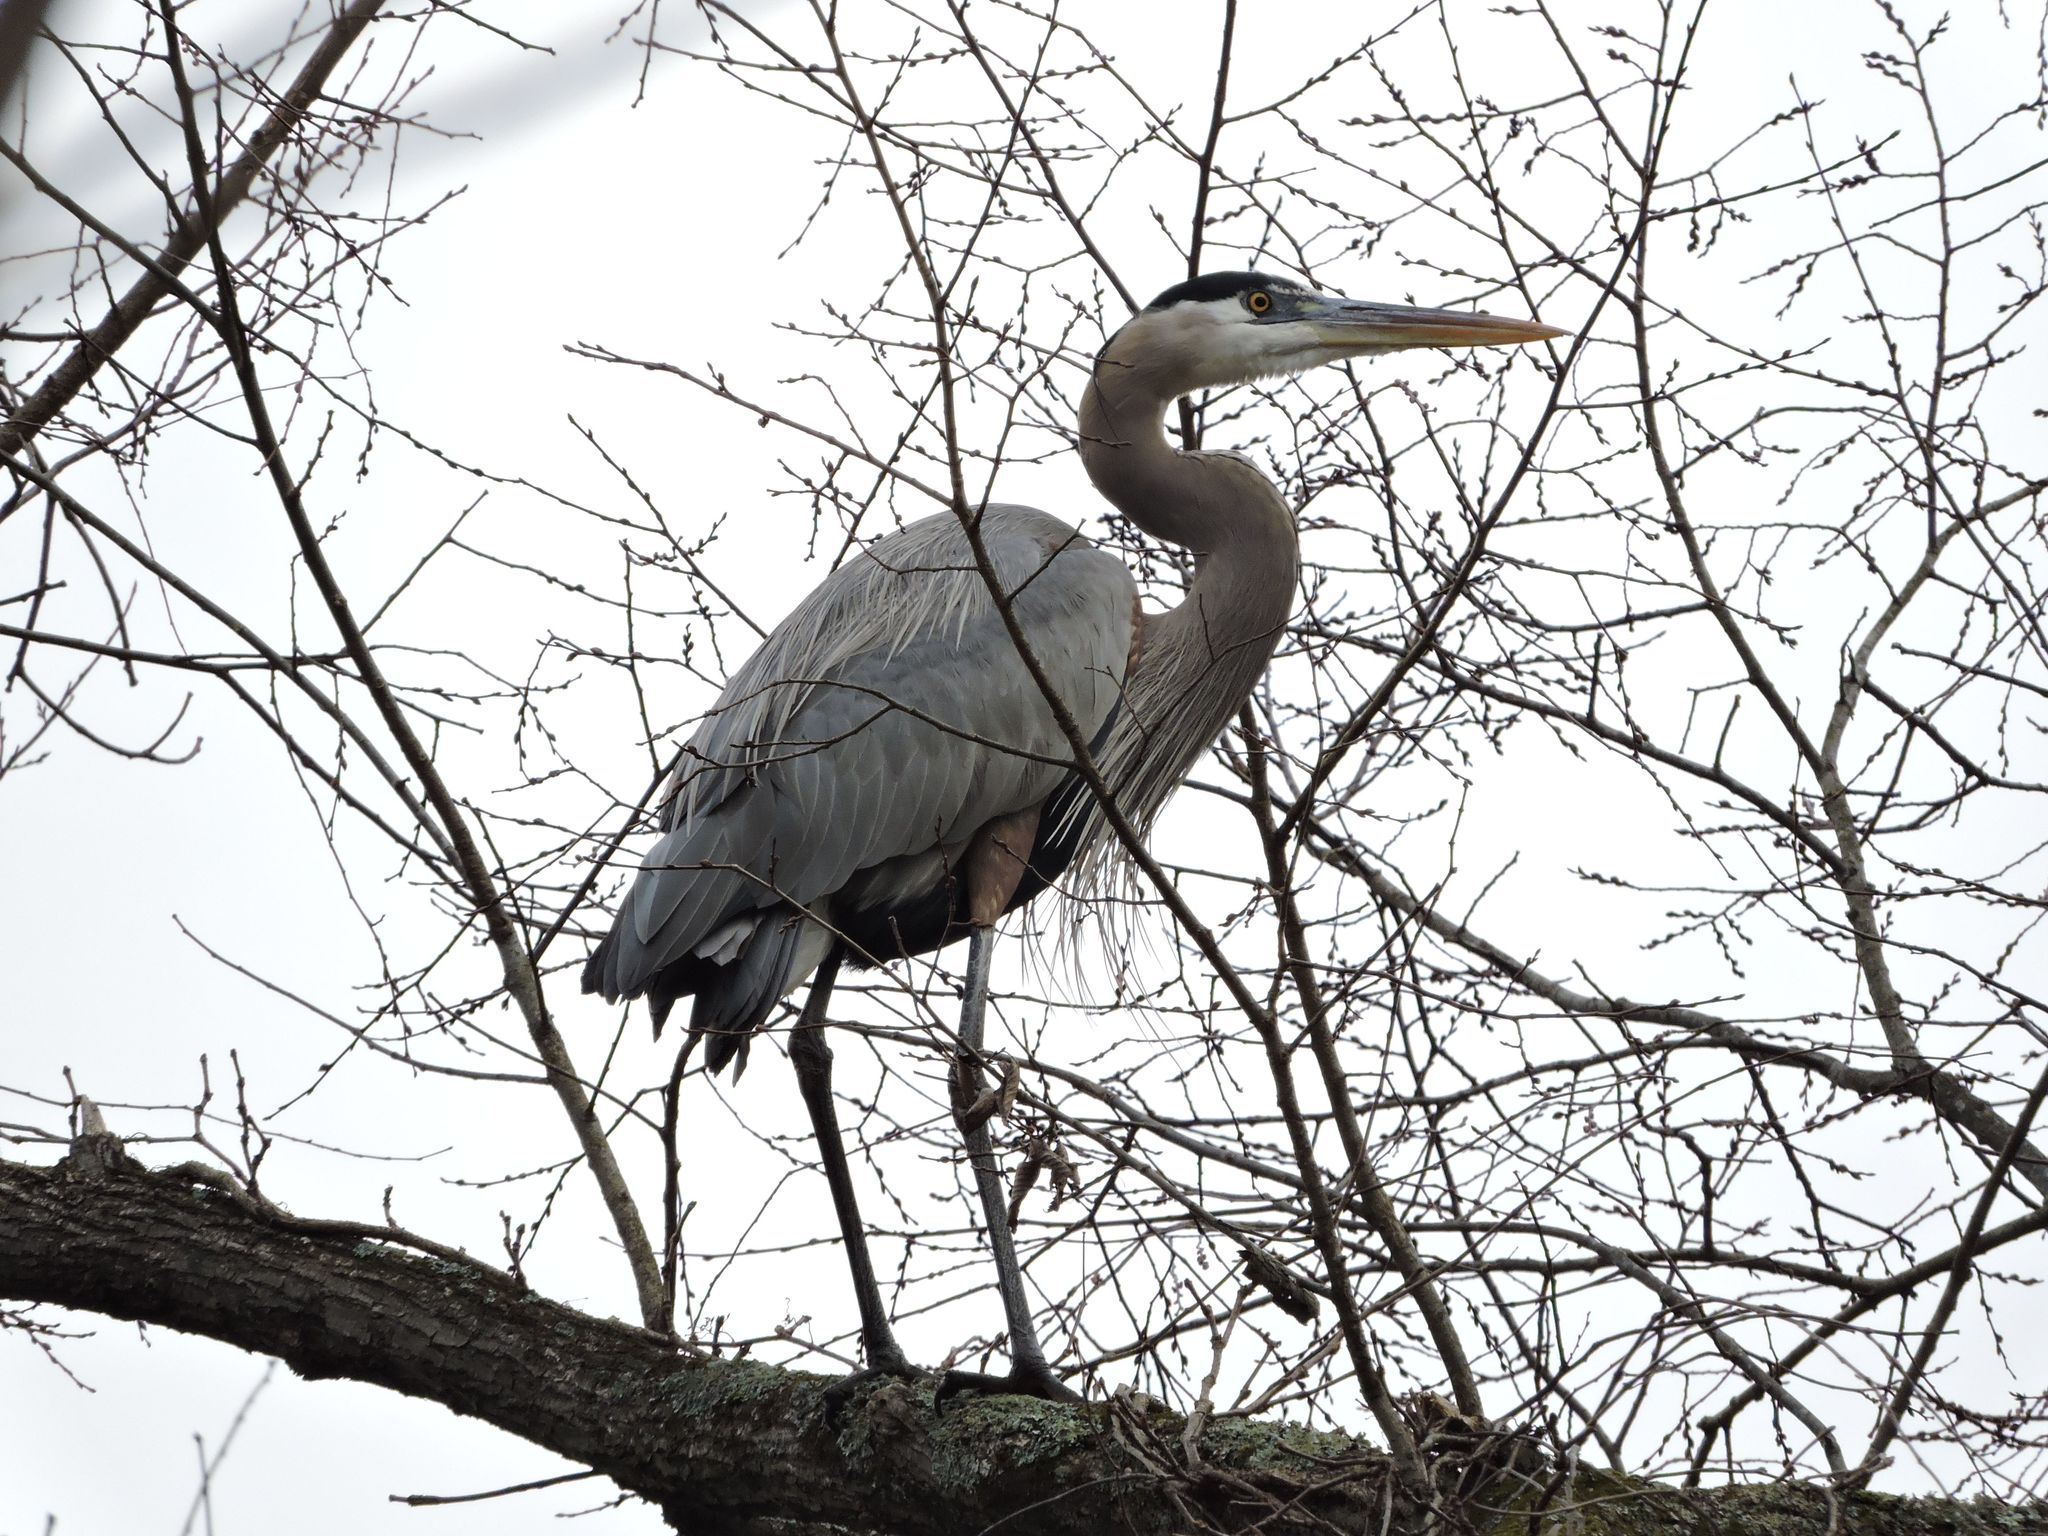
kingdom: Animalia
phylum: Chordata
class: Aves
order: Pelecaniformes
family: Ardeidae
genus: Ardea
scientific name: Ardea herodias
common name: Great blue heron
